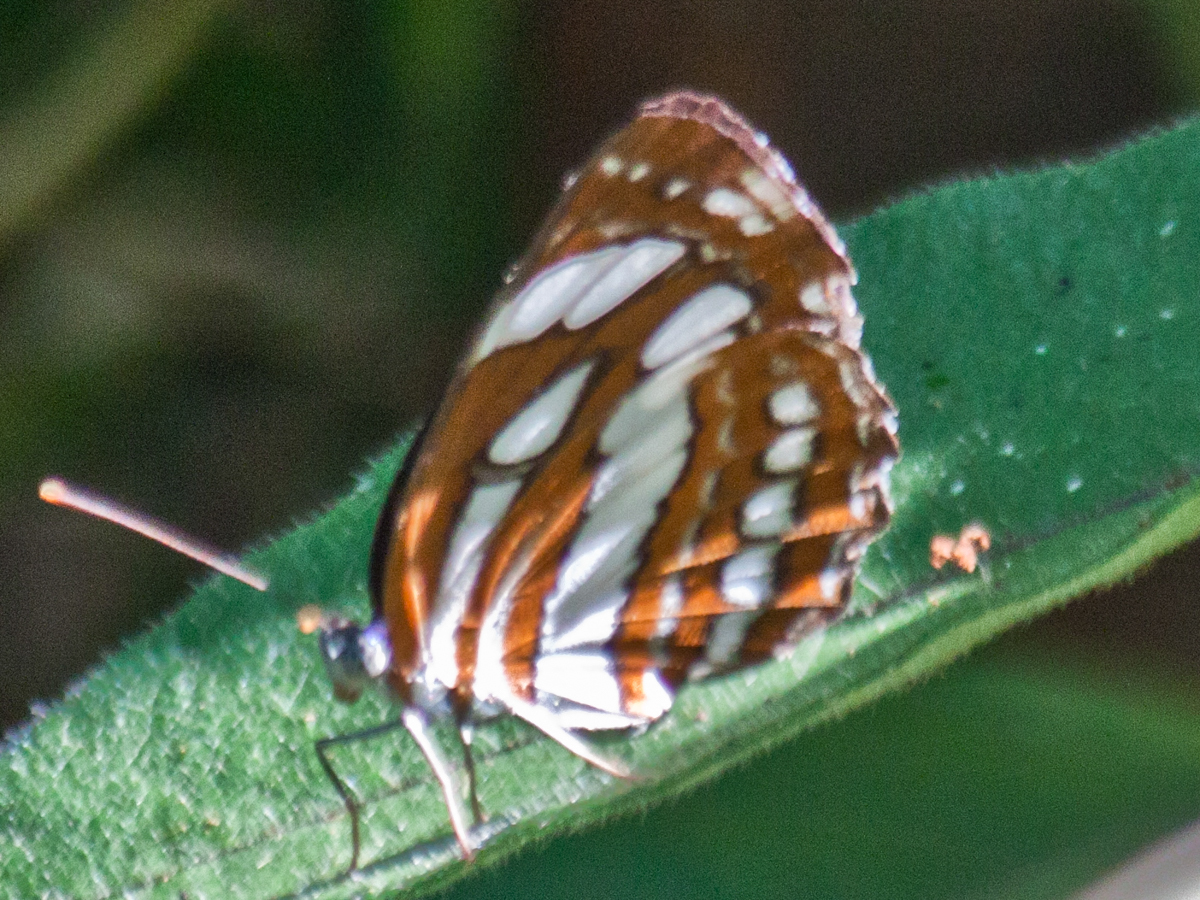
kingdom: Animalia
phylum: Arthropoda
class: Insecta
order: Lepidoptera
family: Nymphalidae
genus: Neptis
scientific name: Neptis hylas
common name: Common sailer
